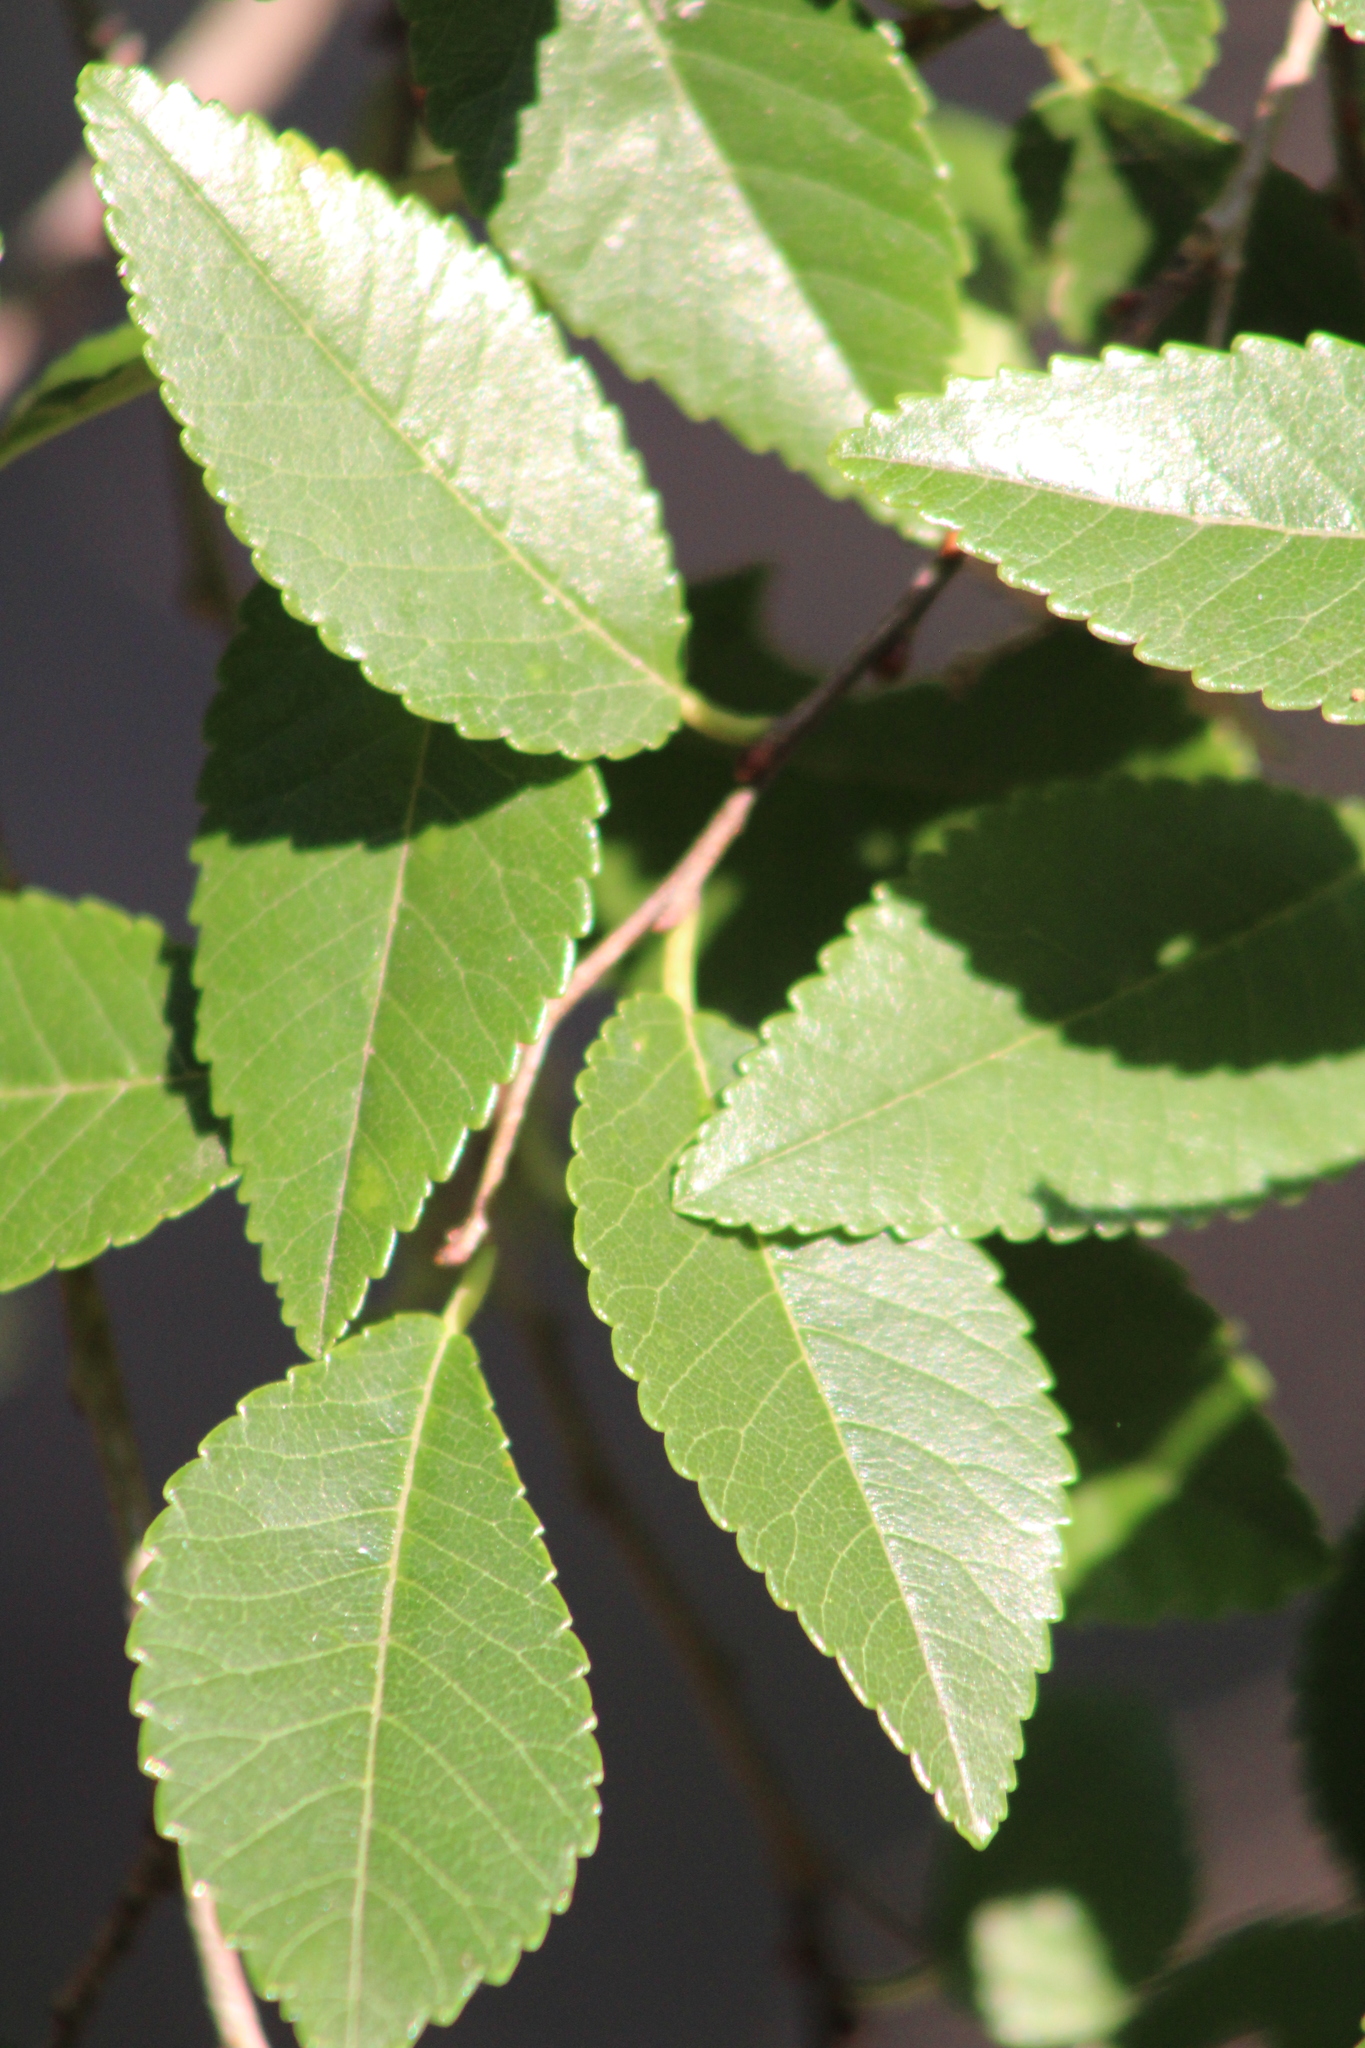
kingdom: Plantae
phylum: Tracheophyta
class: Magnoliopsida
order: Rosales
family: Ulmaceae
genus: Ulmus
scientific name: Ulmus parvifolia
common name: Chinese elm
